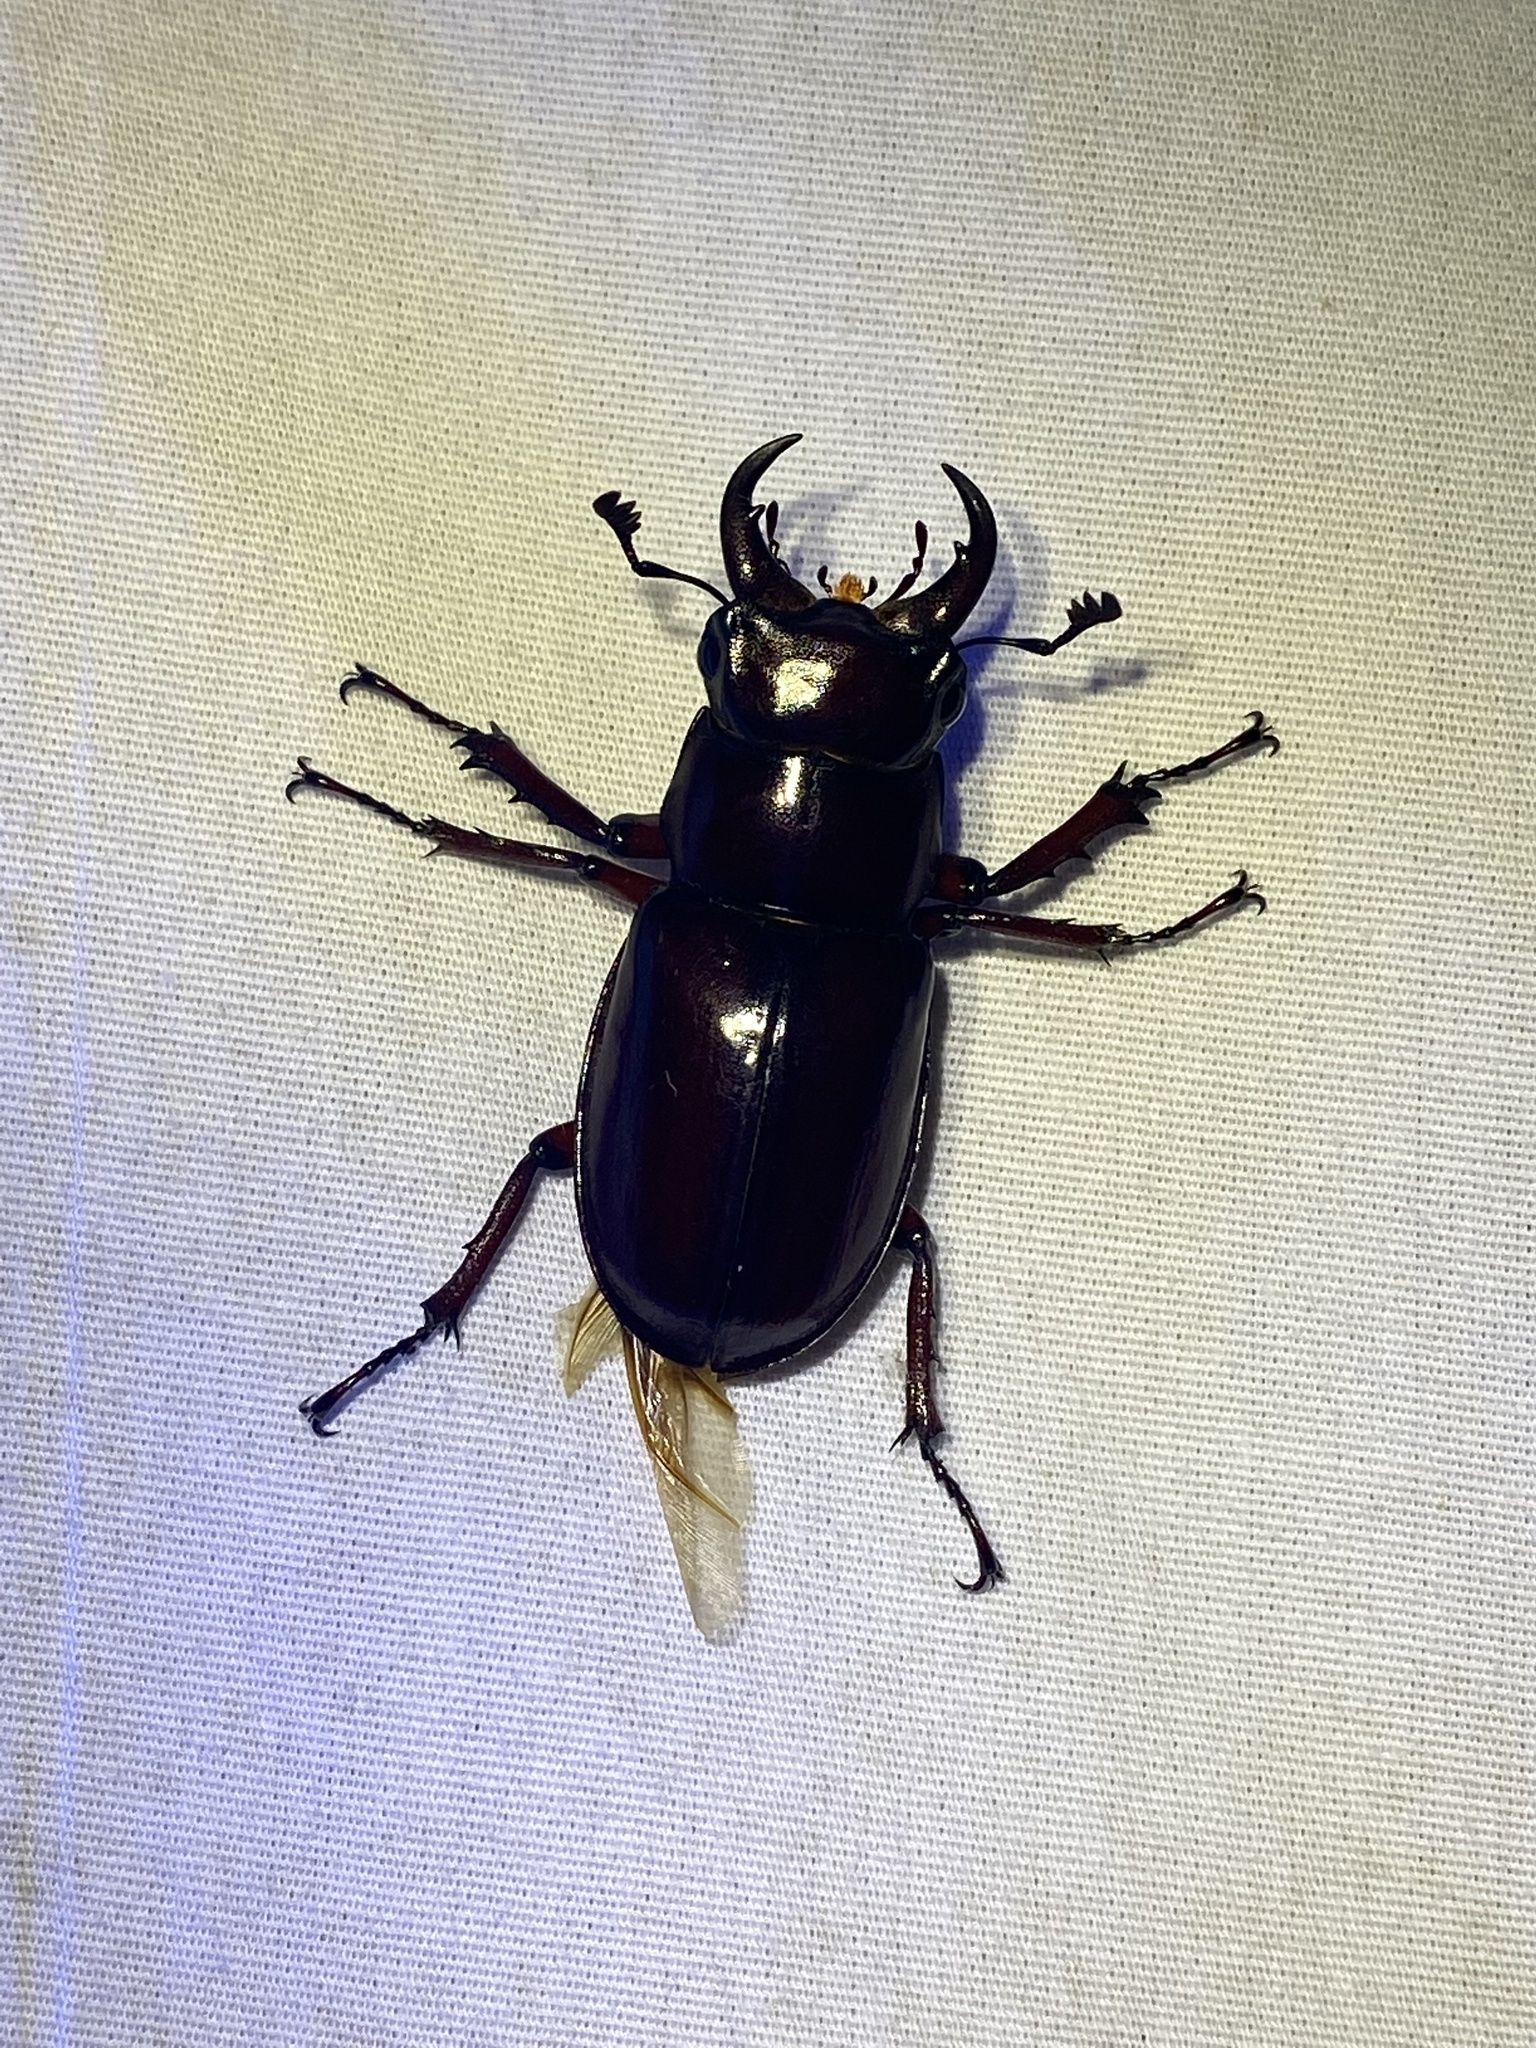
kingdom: Animalia
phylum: Arthropoda
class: Insecta
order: Coleoptera
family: Lucanidae
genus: Lucanus
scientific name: Lucanus capreolus
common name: Stag beetle
